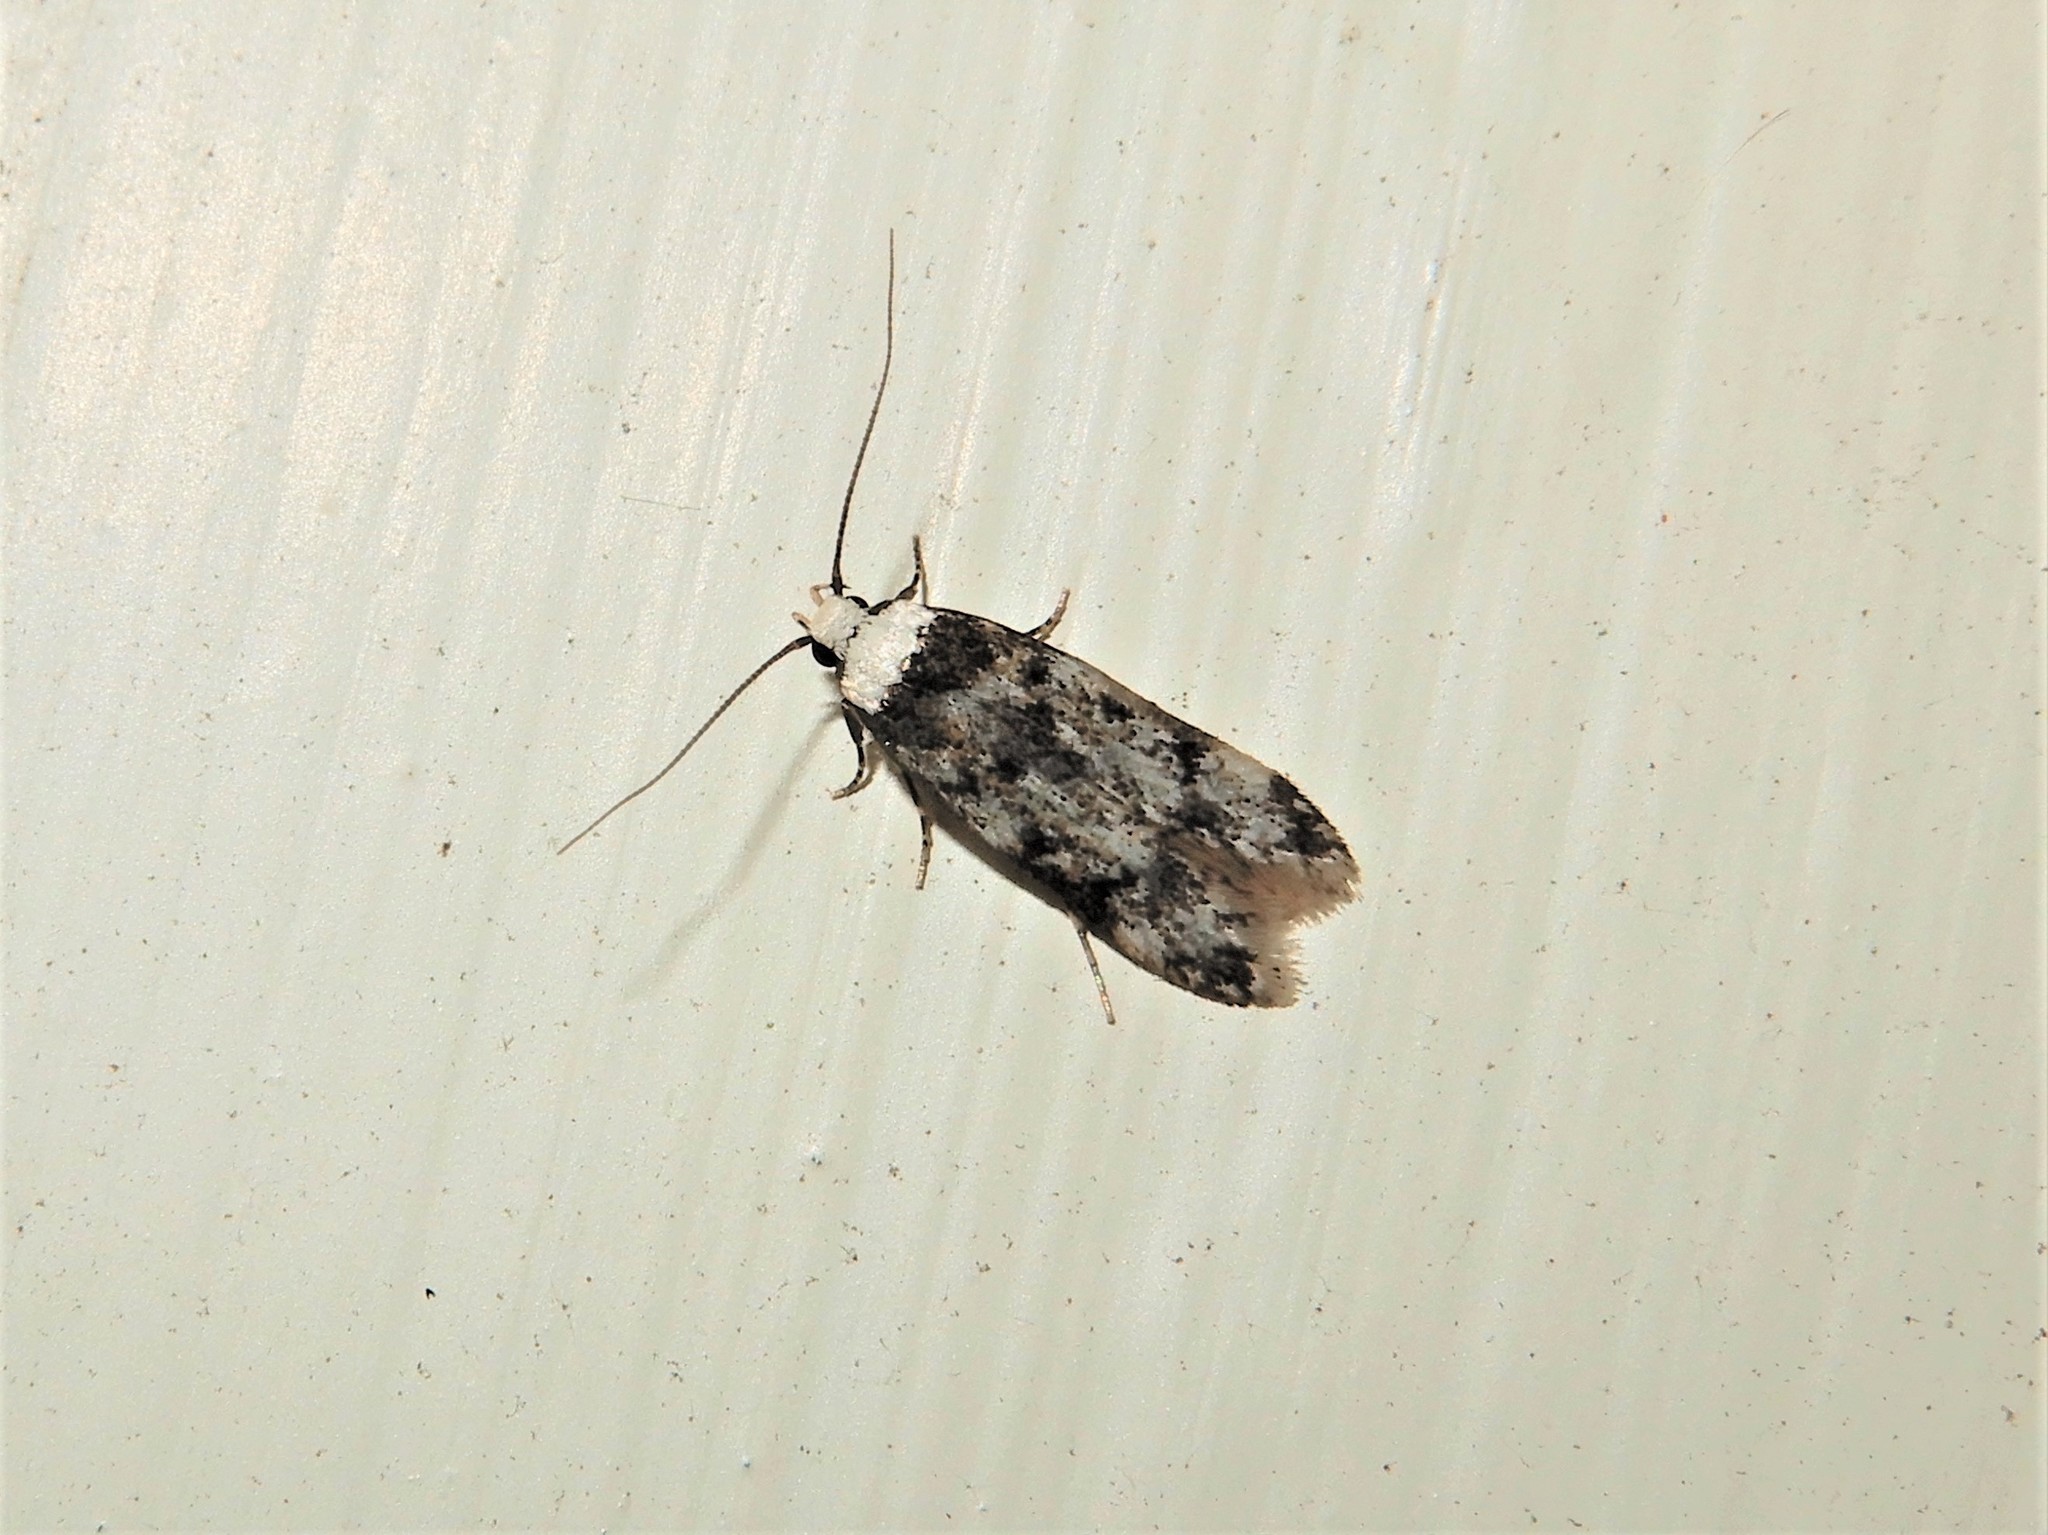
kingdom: Animalia
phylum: Arthropoda
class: Insecta
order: Lepidoptera
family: Oecophoridae
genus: Endrosis
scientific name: Endrosis sarcitrella
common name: White-shouldered house moth
